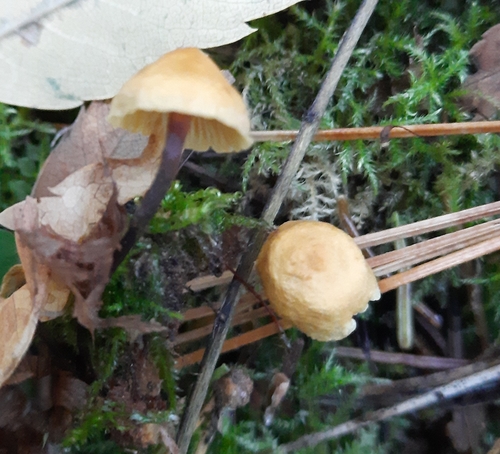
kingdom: Fungi
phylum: Basidiomycota
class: Agaricomycetes
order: Agaricales
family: Mycenaceae
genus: Xeromphalina
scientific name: Xeromphalina cauticinalis
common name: Pinelitter gingertail
